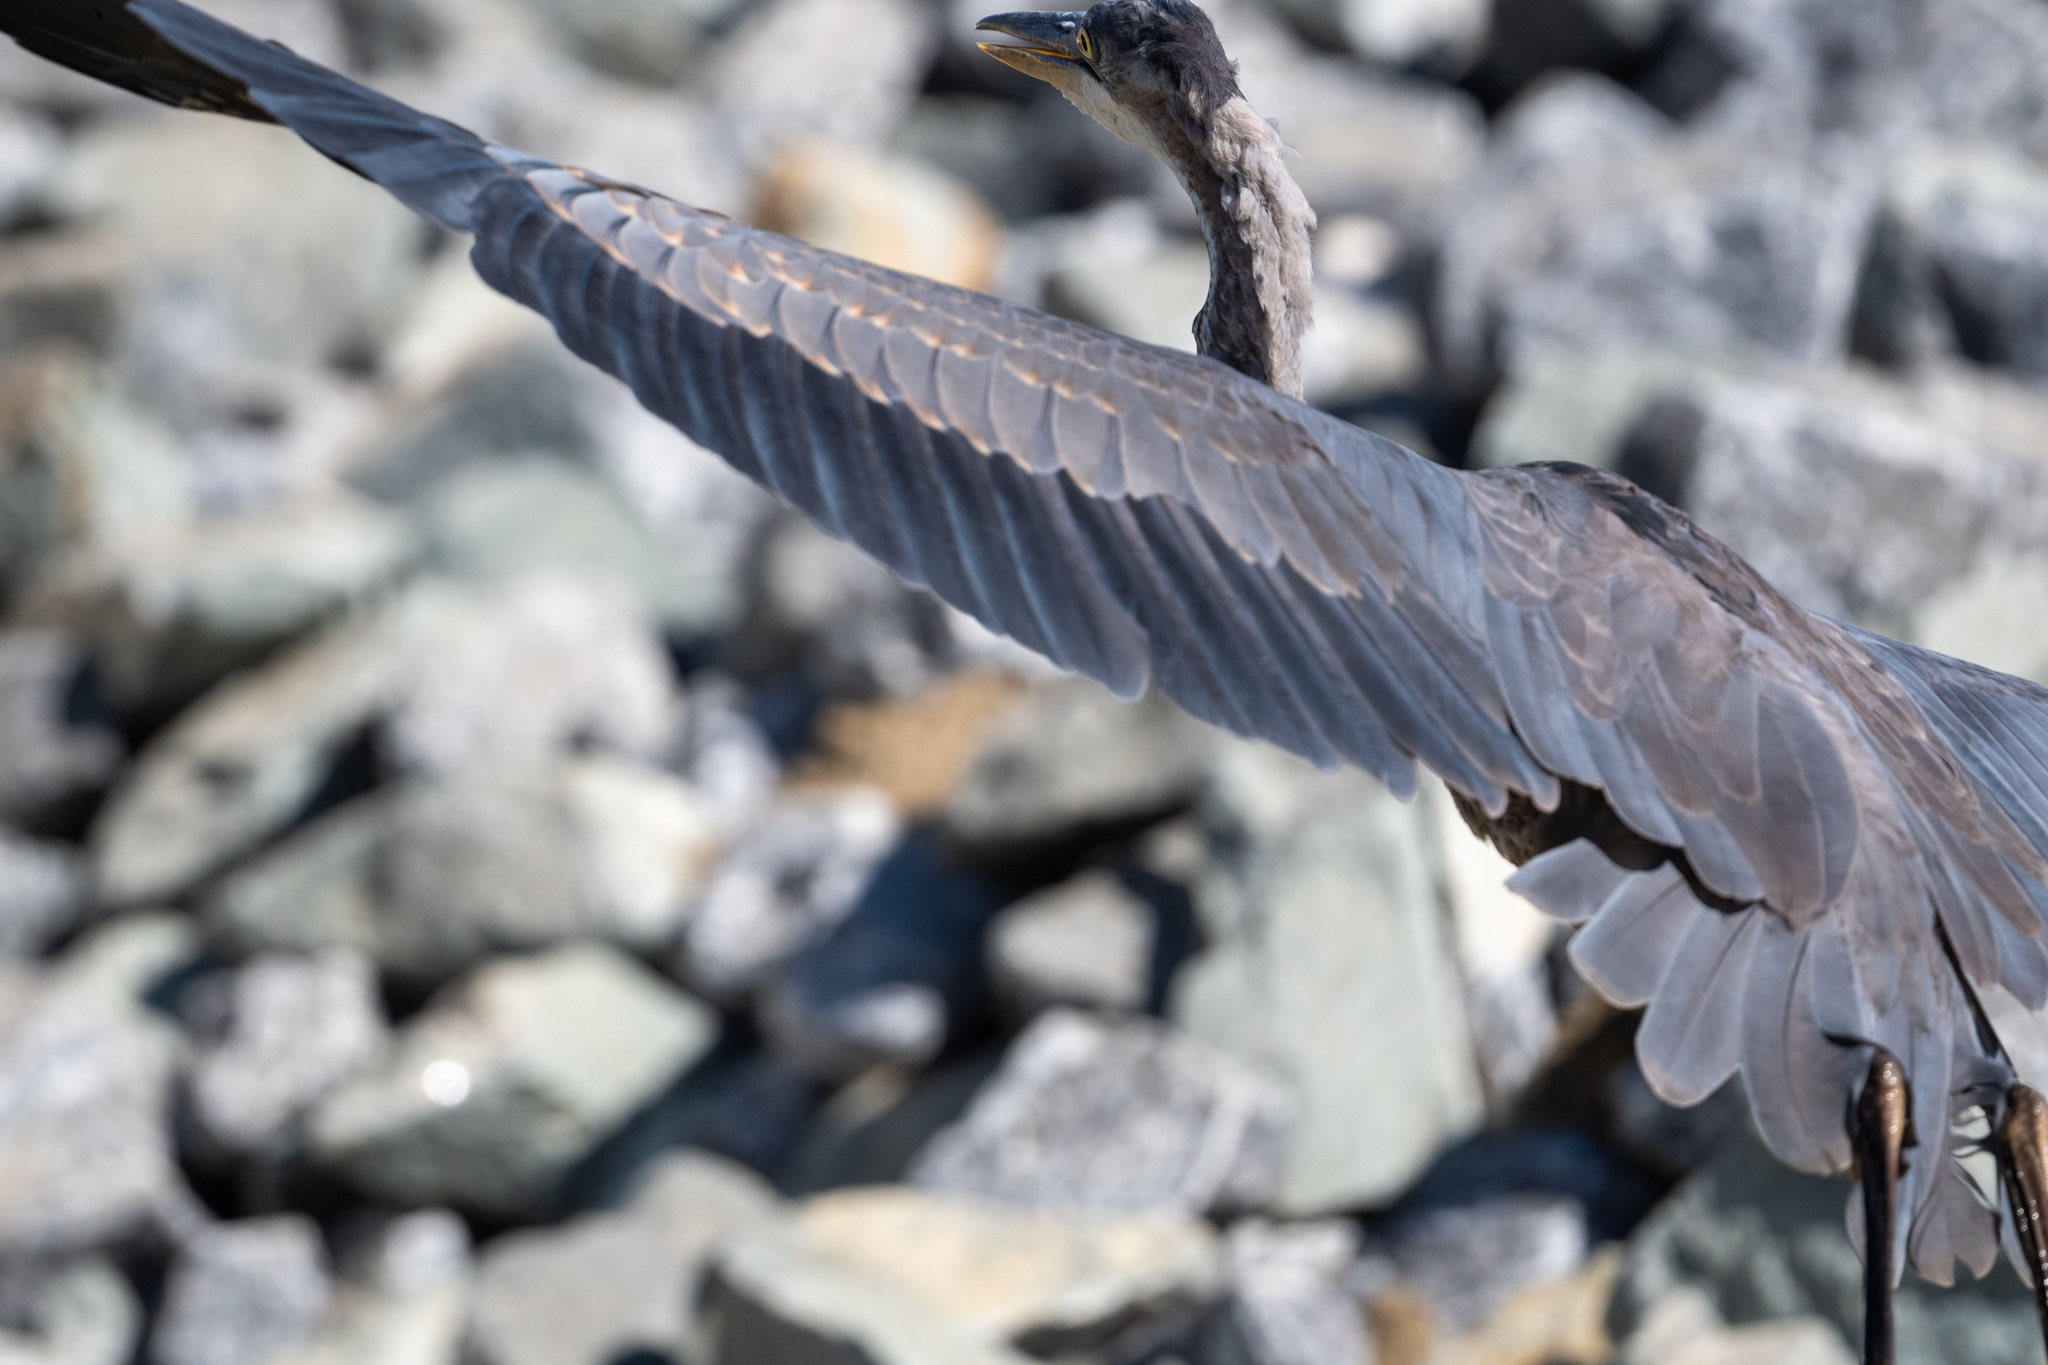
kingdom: Animalia
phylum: Chordata
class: Aves
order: Pelecaniformes
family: Ardeidae
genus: Ardea
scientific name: Ardea herodias
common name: Great blue heron
